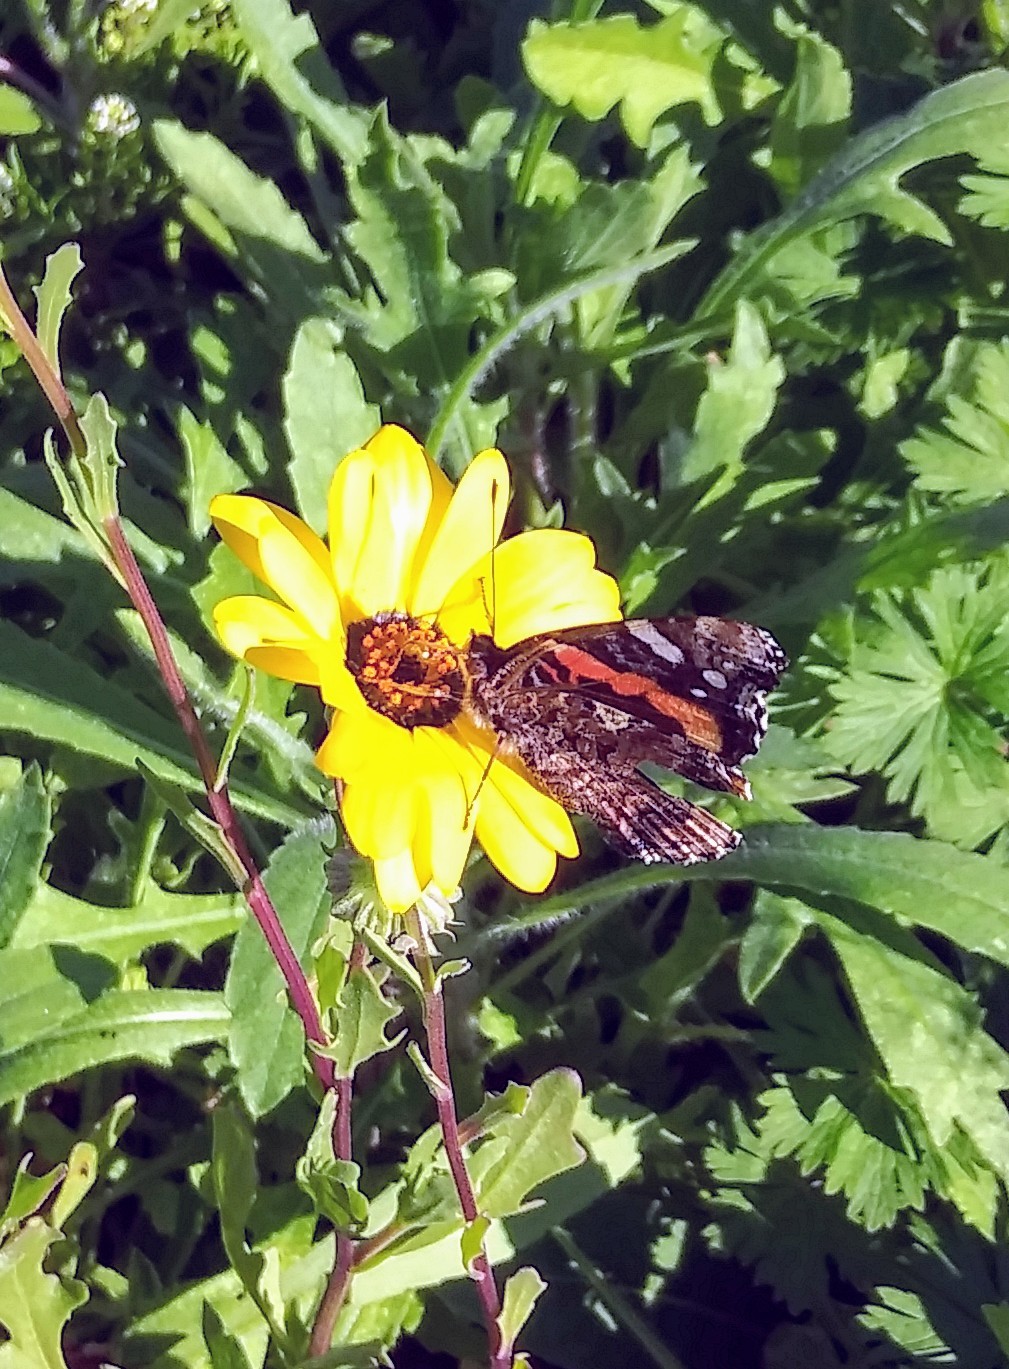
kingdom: Animalia
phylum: Arthropoda
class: Insecta
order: Lepidoptera
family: Nymphalidae
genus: Vanessa
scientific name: Vanessa atalanta
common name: Red admiral
